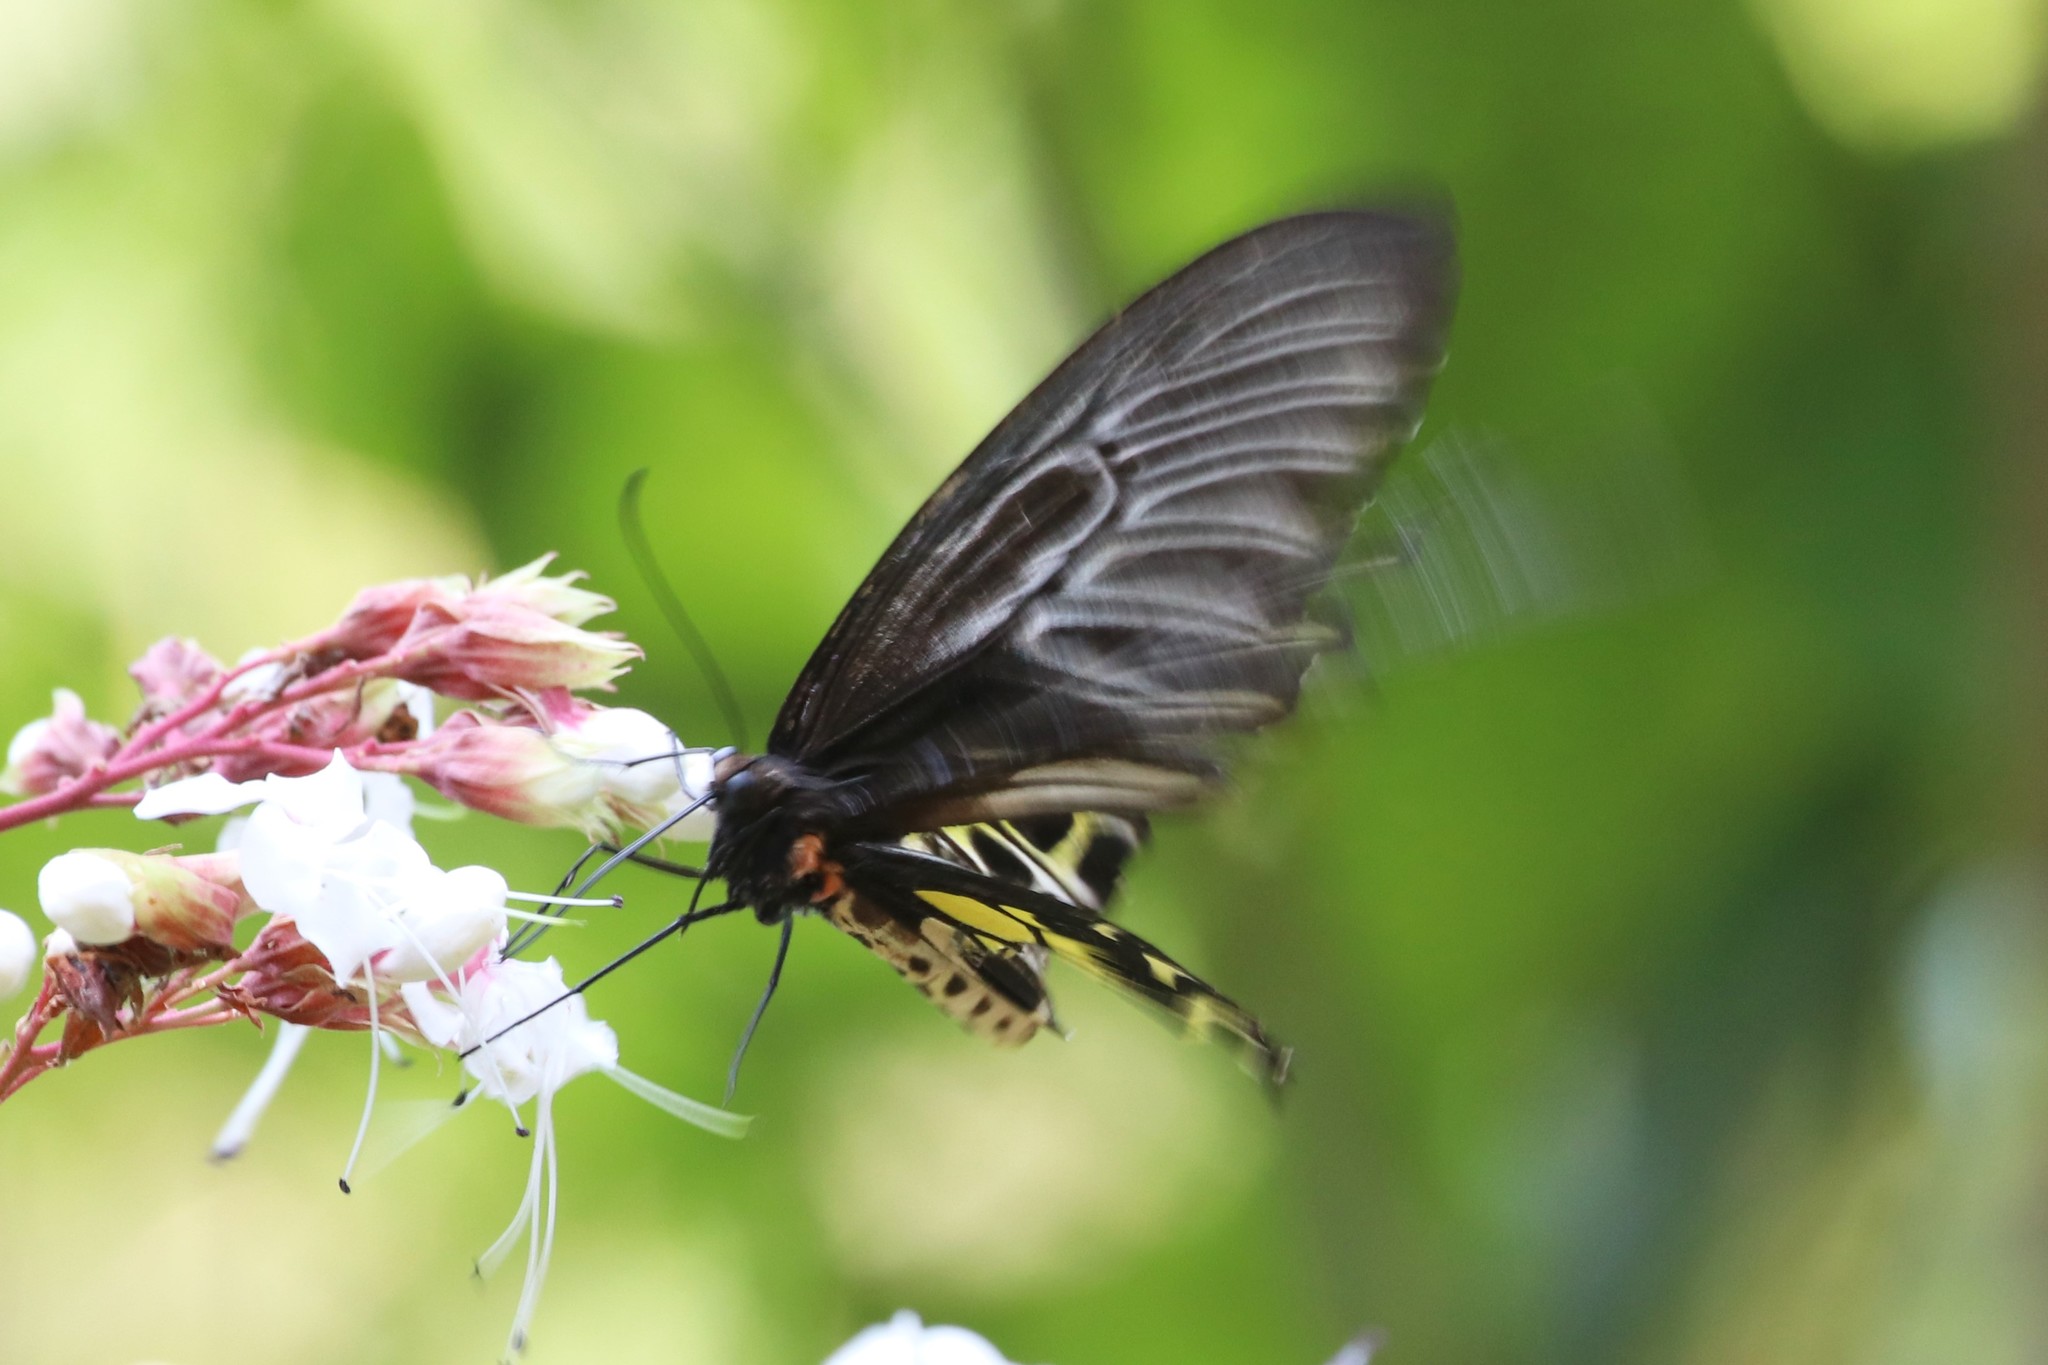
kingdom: Animalia
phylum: Arthropoda
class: Insecta
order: Lepidoptera
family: Papilionidae
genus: Troides
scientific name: Troides helena
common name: Common birdwing
